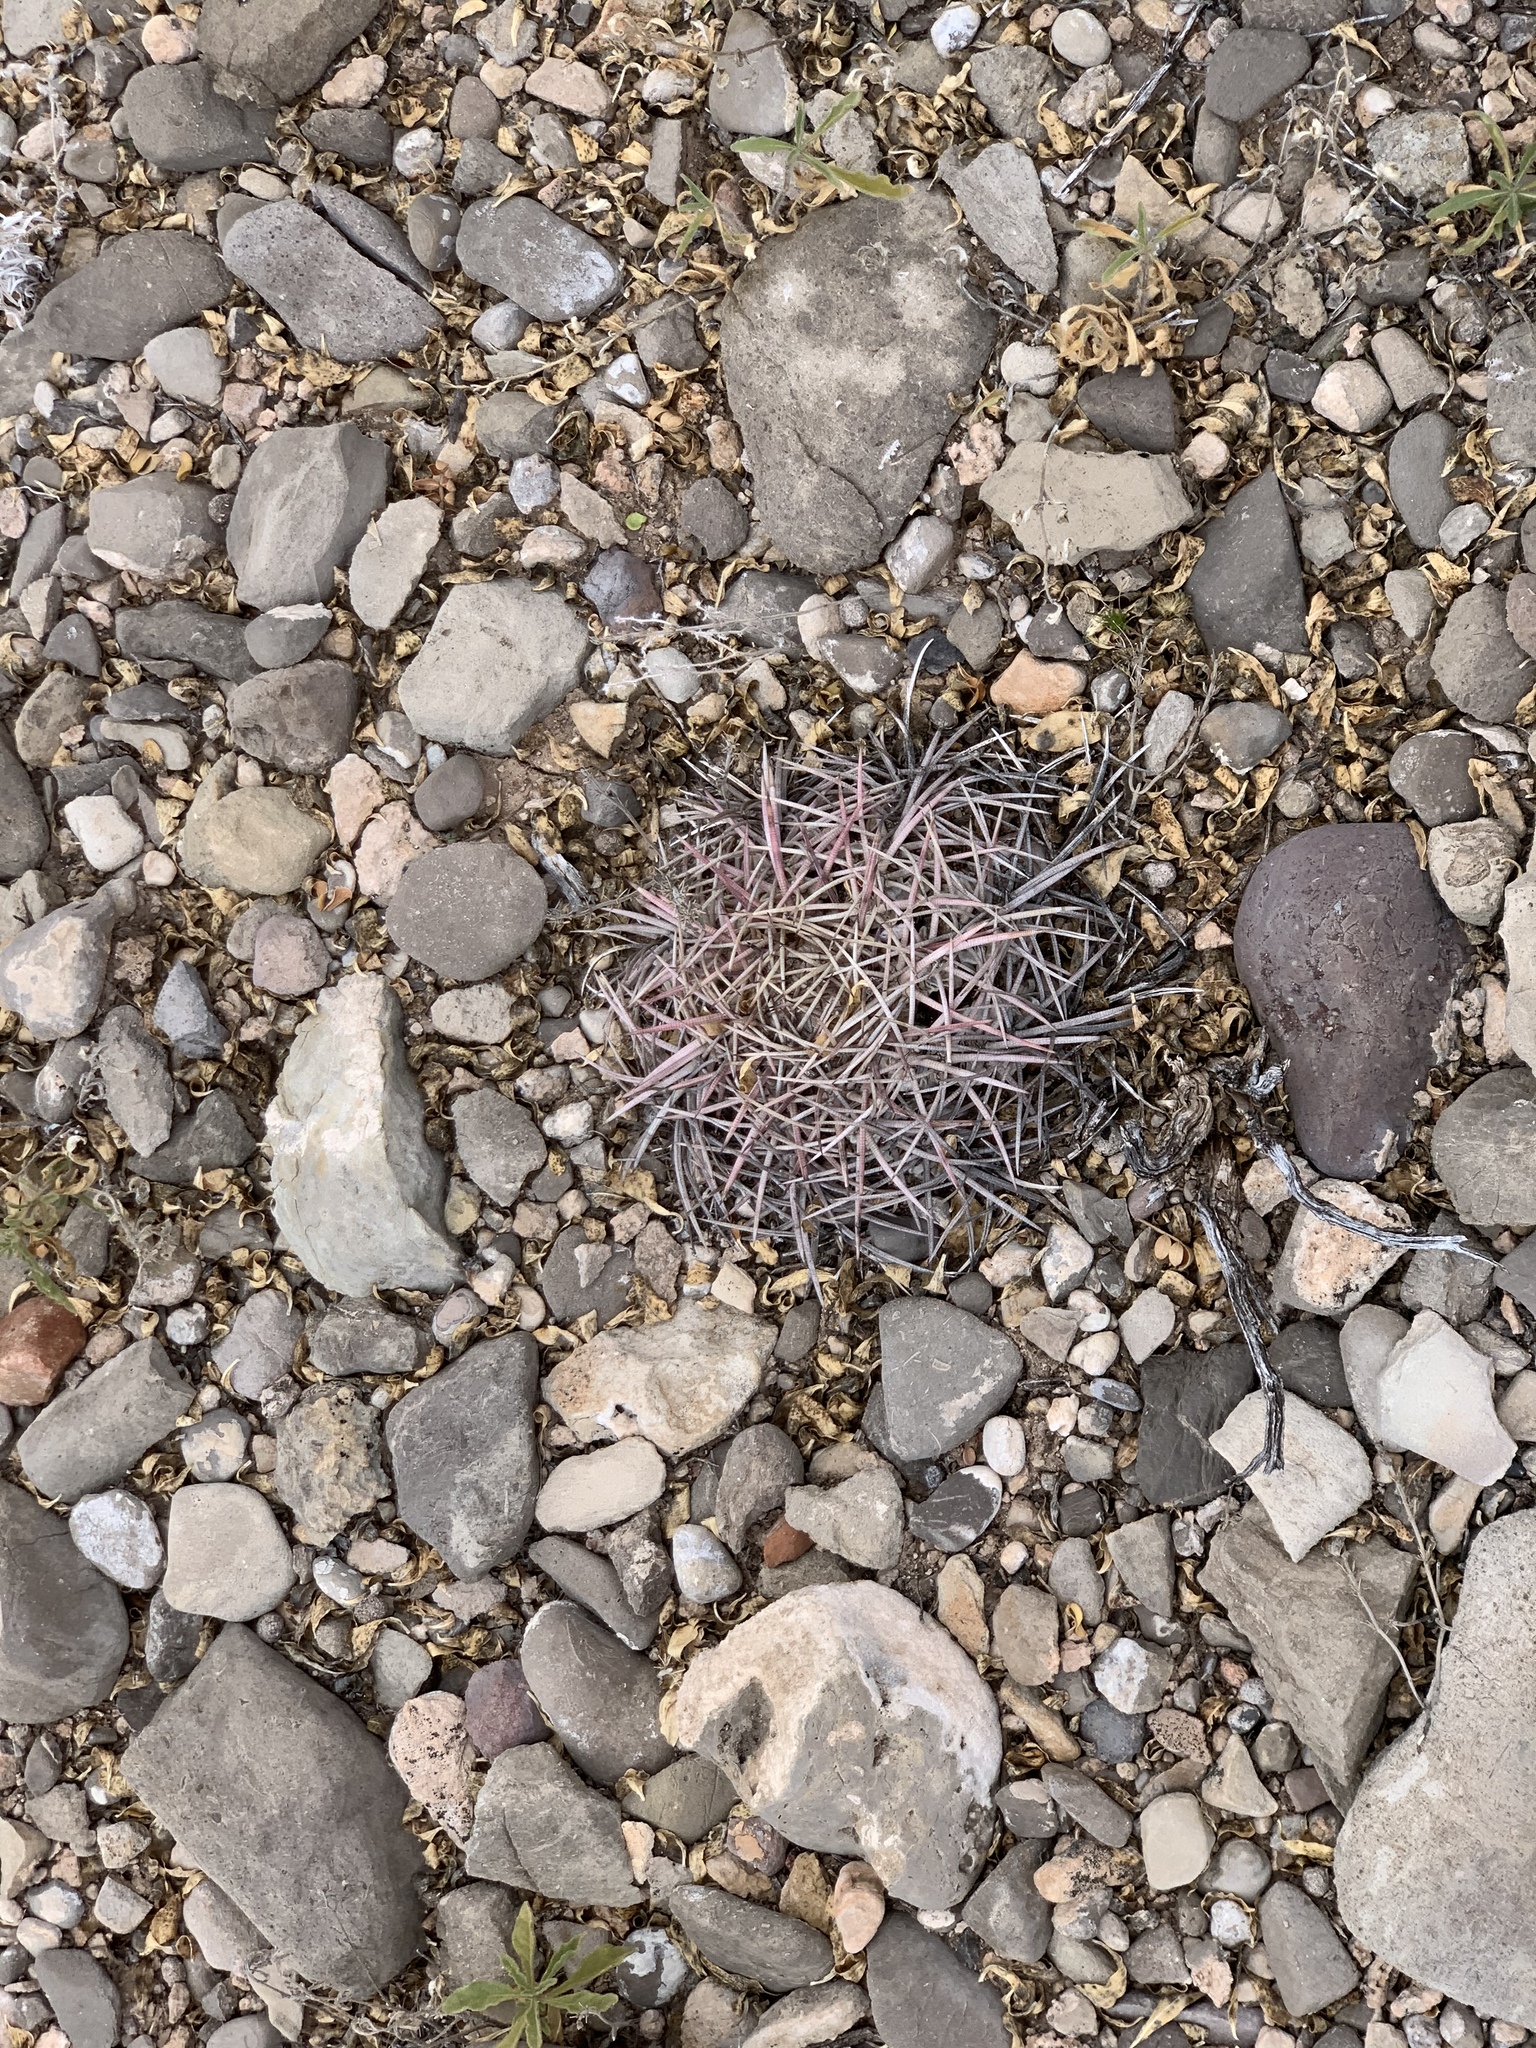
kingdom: Plantae
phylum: Tracheophyta
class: Magnoliopsida
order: Caryophyllales
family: Cactaceae
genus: Echinocactus
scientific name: Echinocactus horizonthalonius
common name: Devilshead
